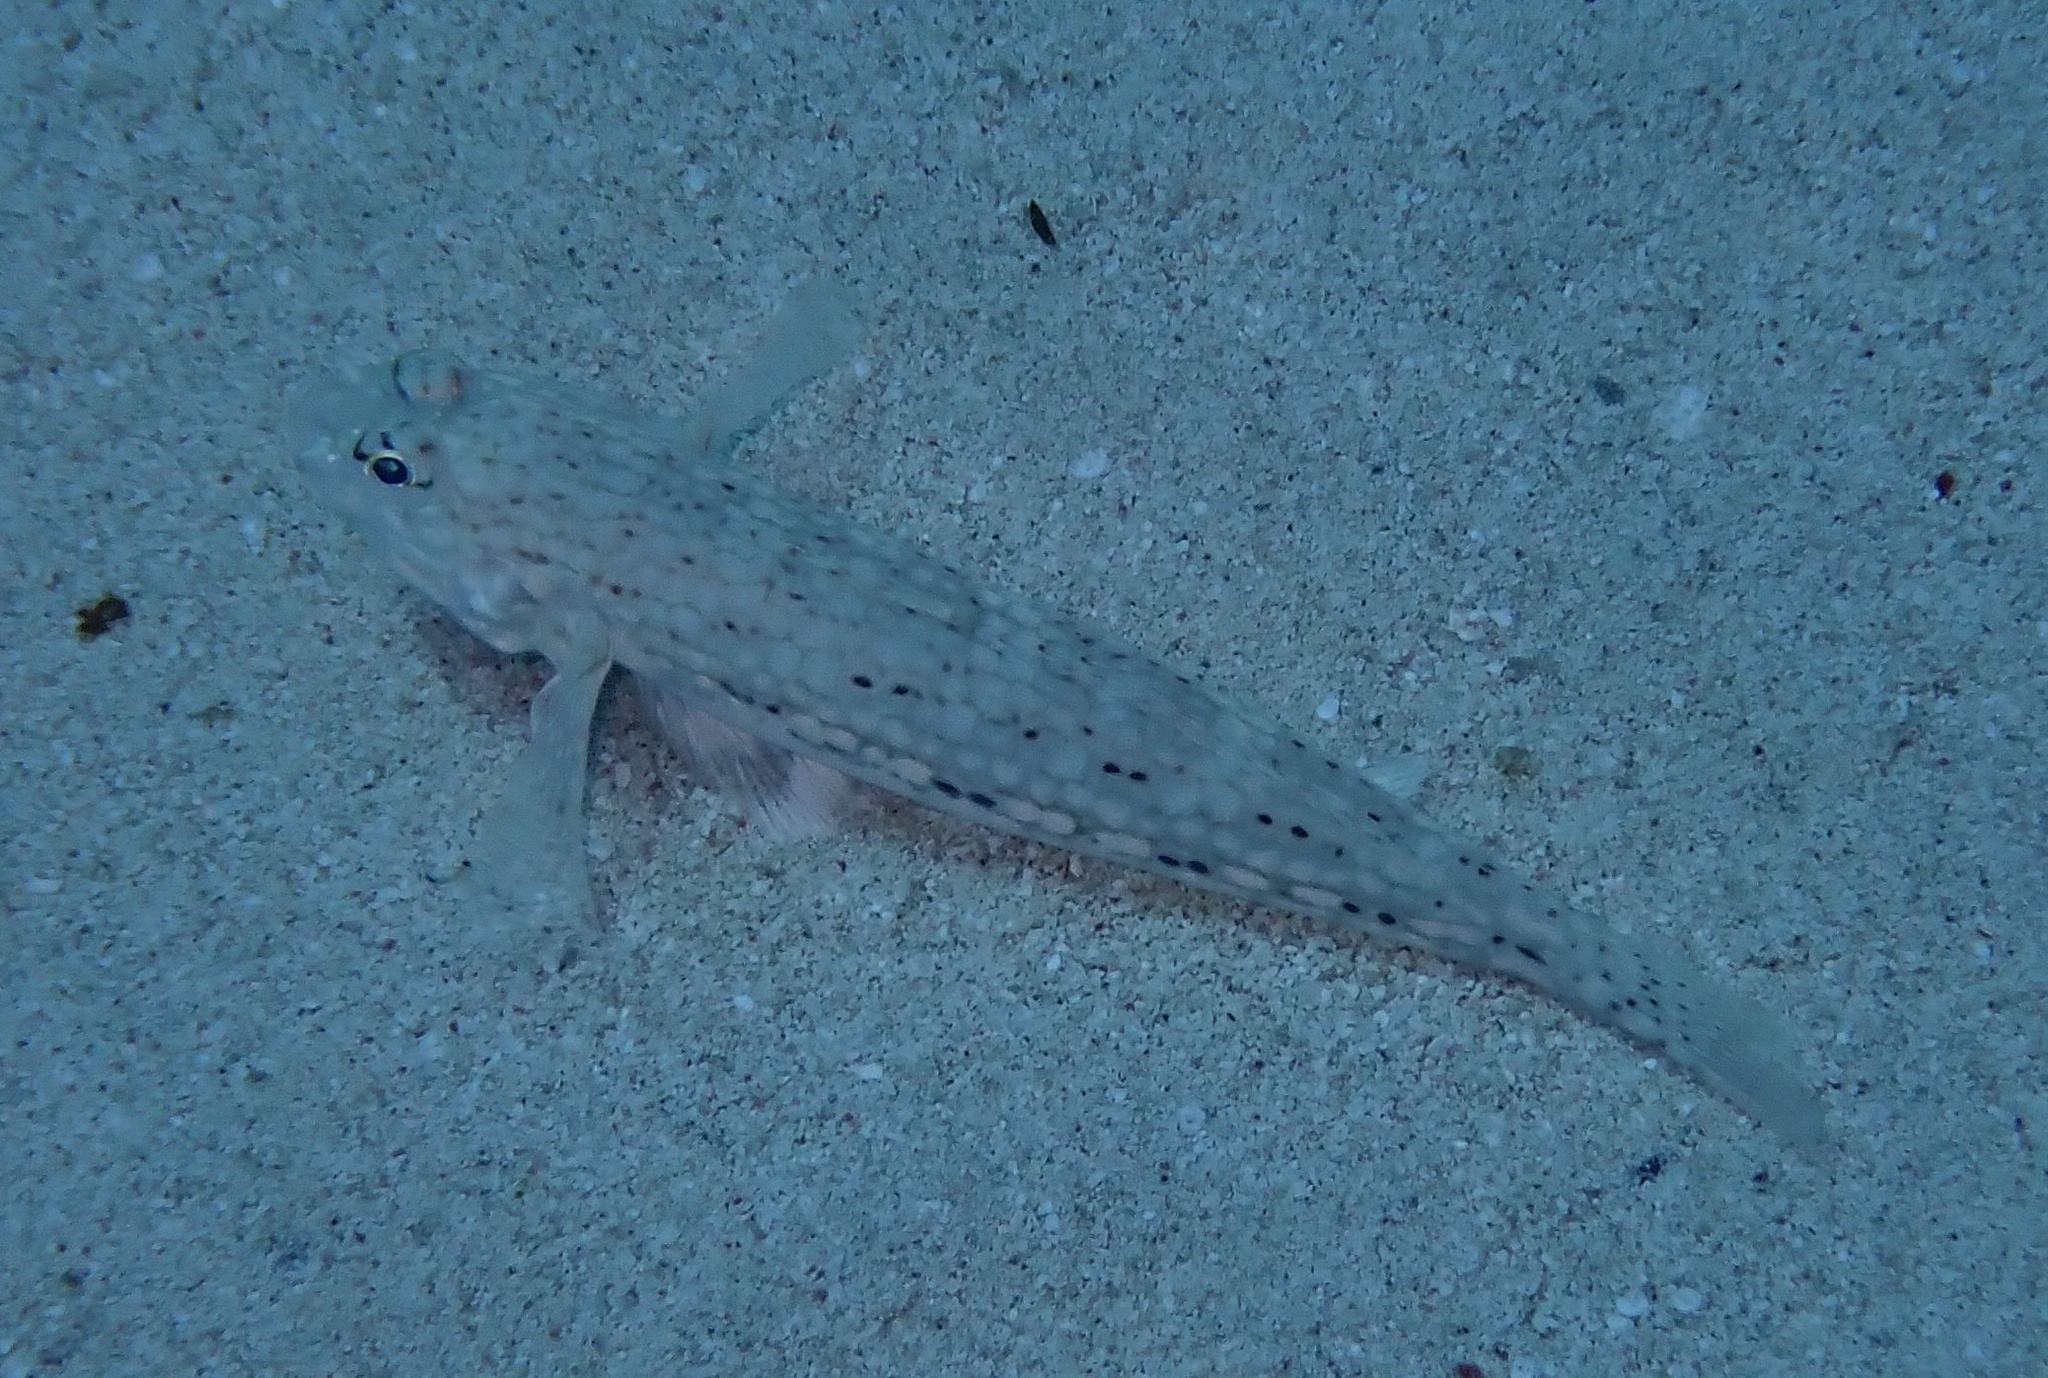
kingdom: Animalia
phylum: Chordata
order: Perciformes
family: Gobiidae
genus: Istigobius
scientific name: Istigobius decoratus
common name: Decorated goby
